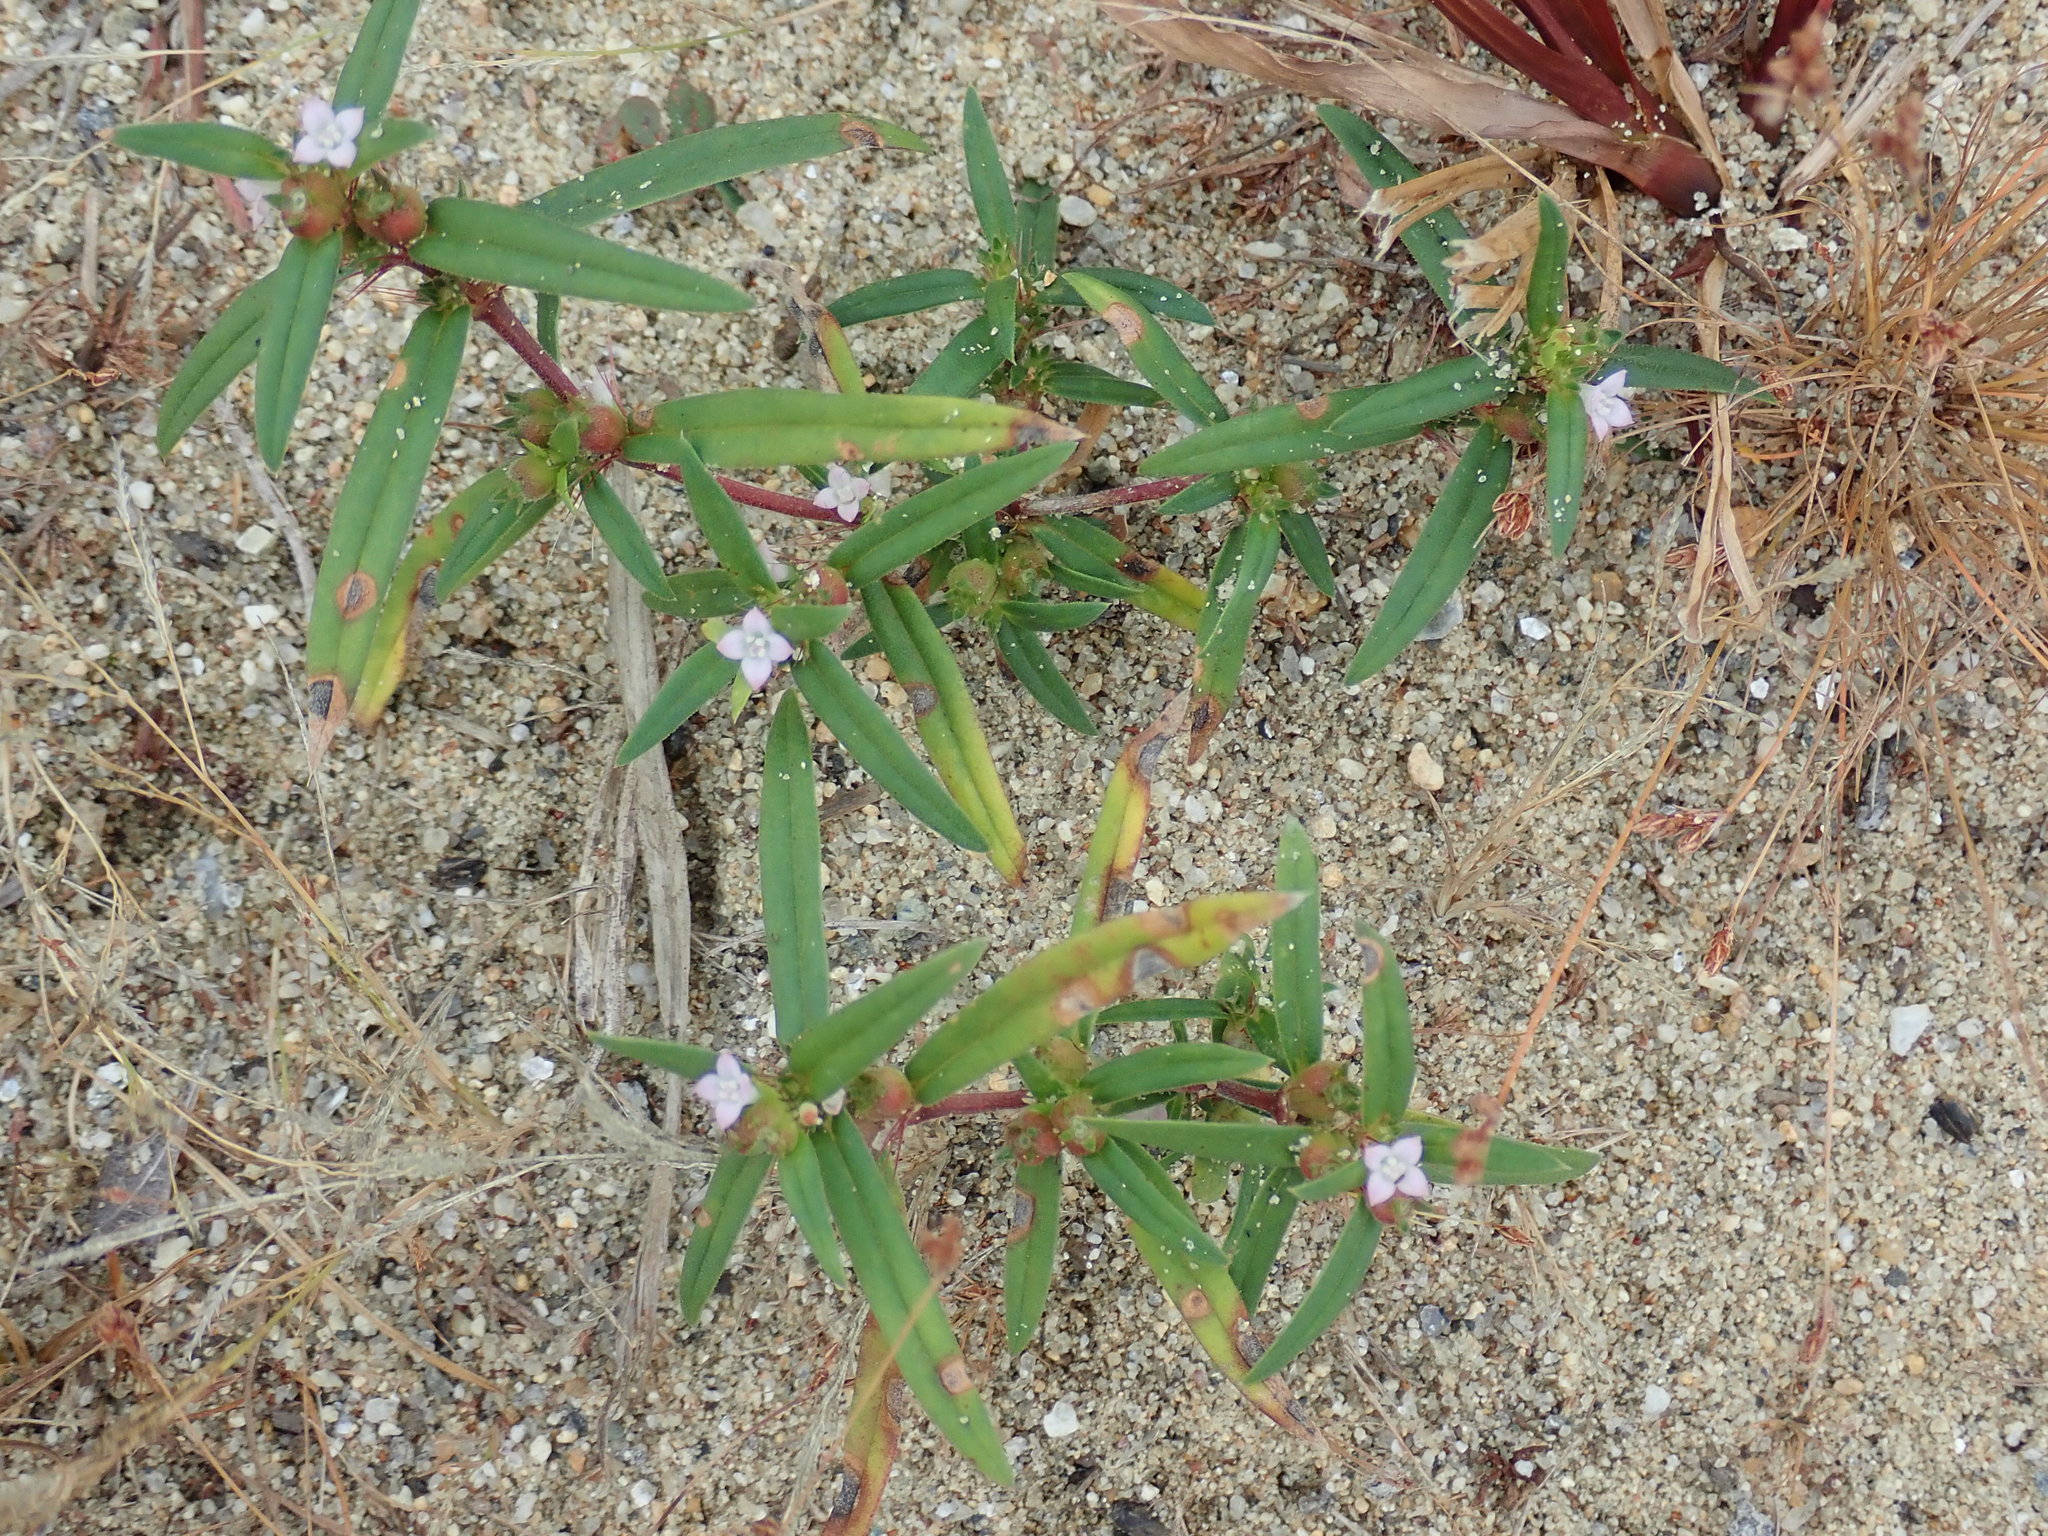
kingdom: Plantae
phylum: Tracheophyta
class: Magnoliopsida
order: Gentianales
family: Rubiaceae
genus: Hexasepalum
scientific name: Hexasepalum teres
